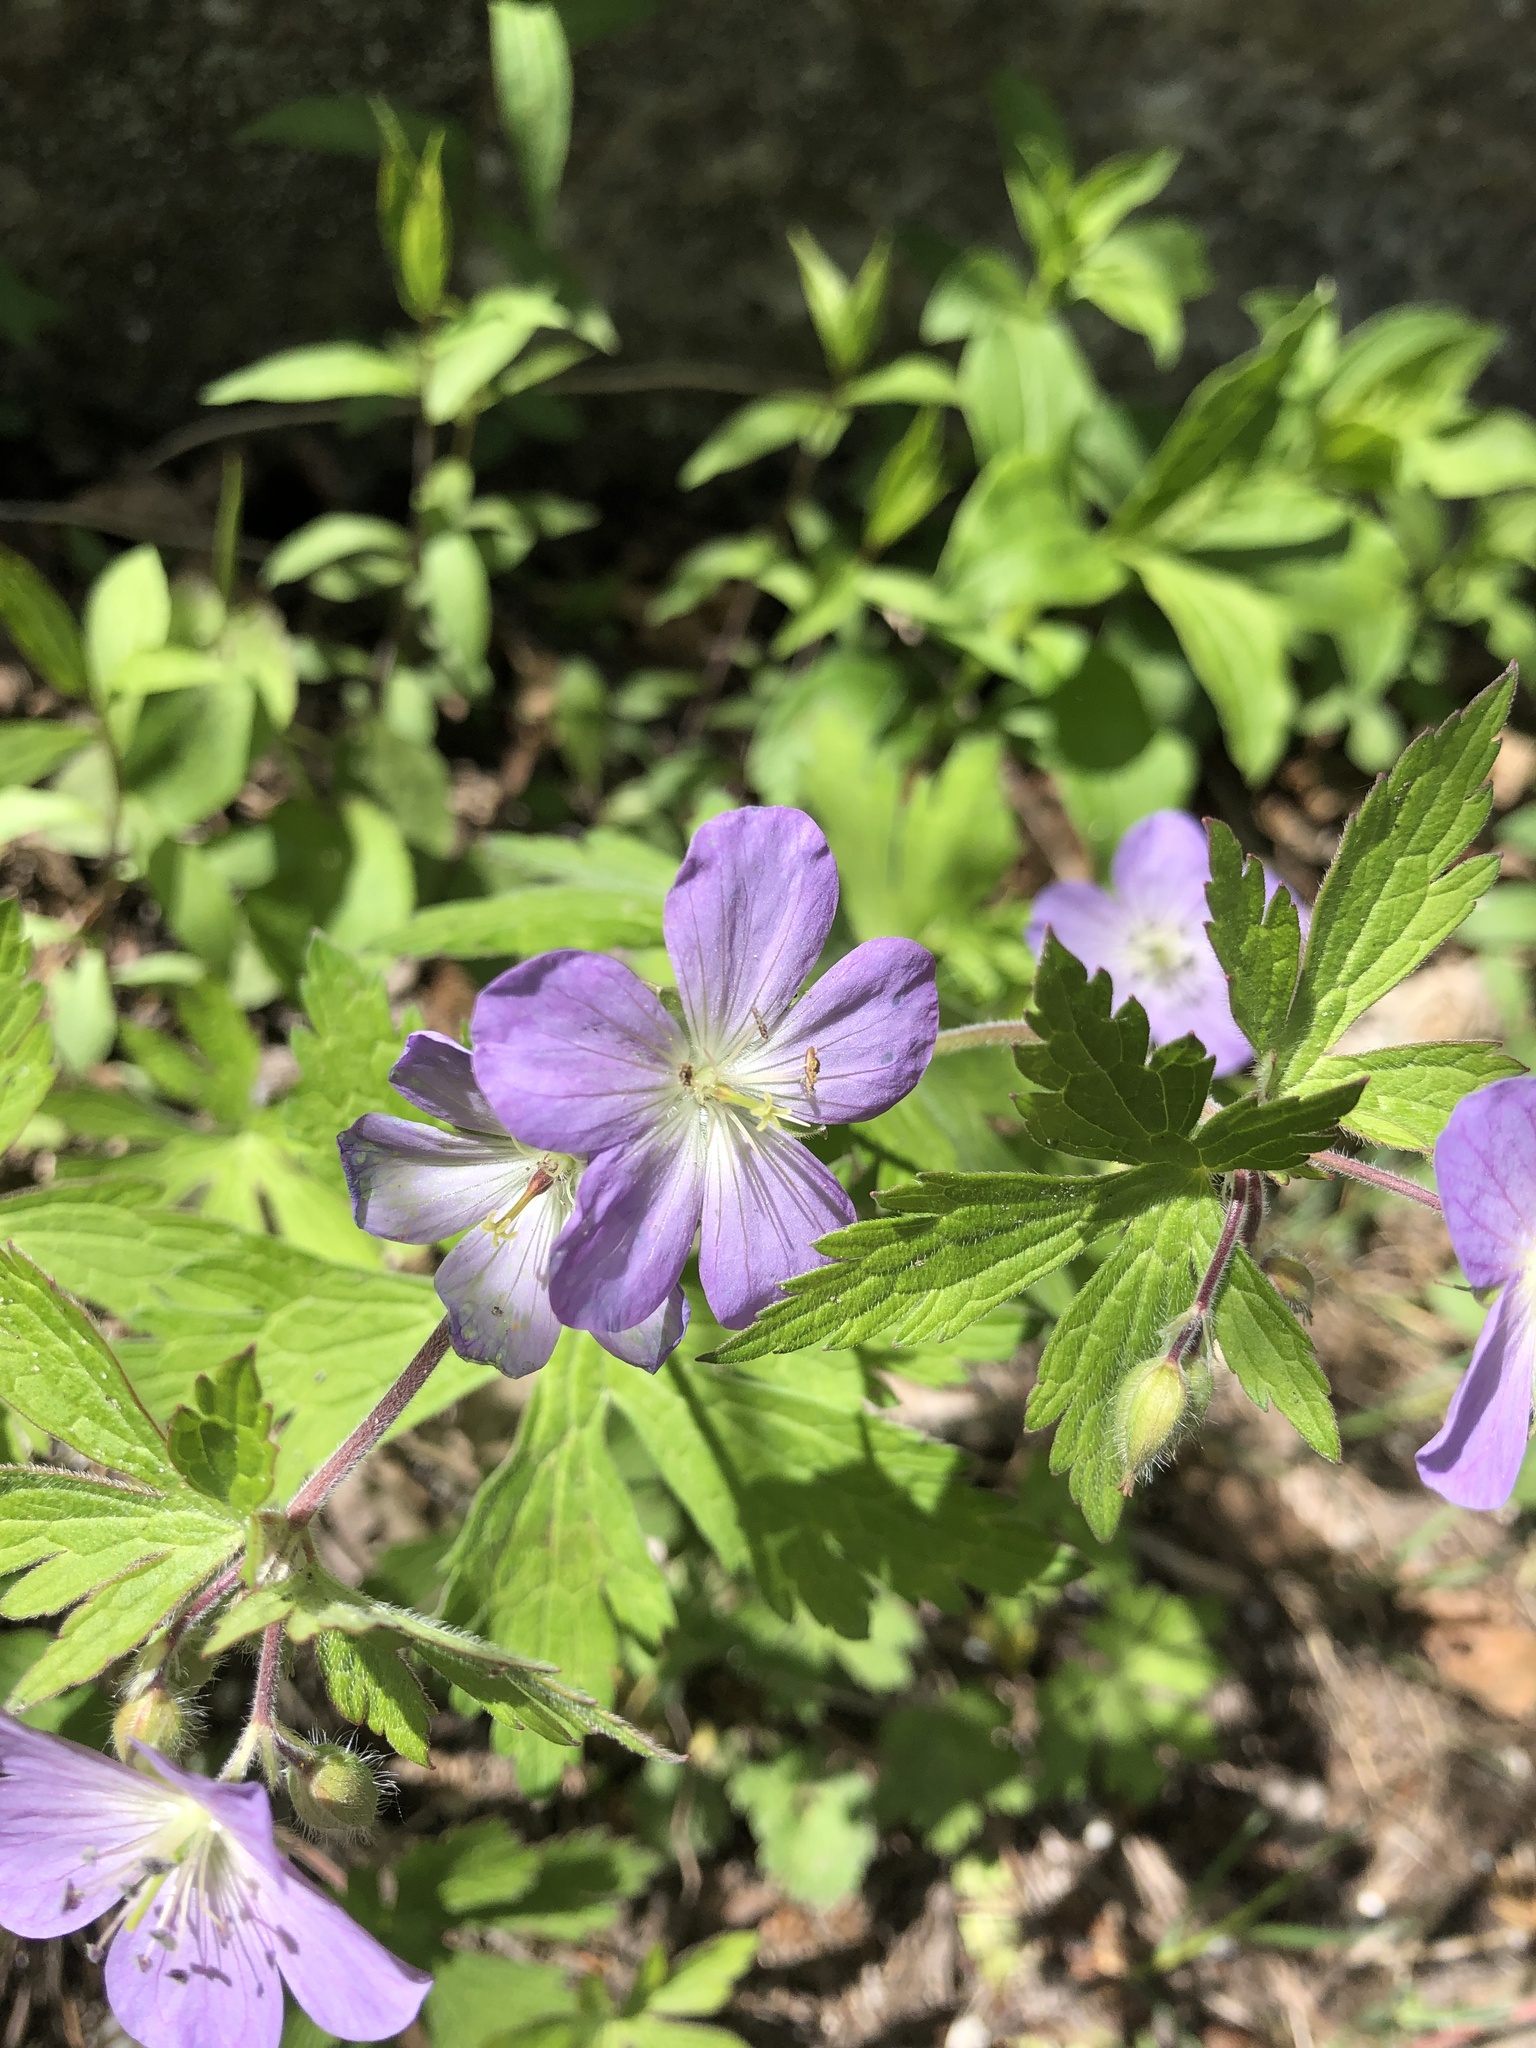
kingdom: Plantae
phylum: Tracheophyta
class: Magnoliopsida
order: Geraniales
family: Geraniaceae
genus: Geranium
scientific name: Geranium maculatum
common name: Spotted geranium
